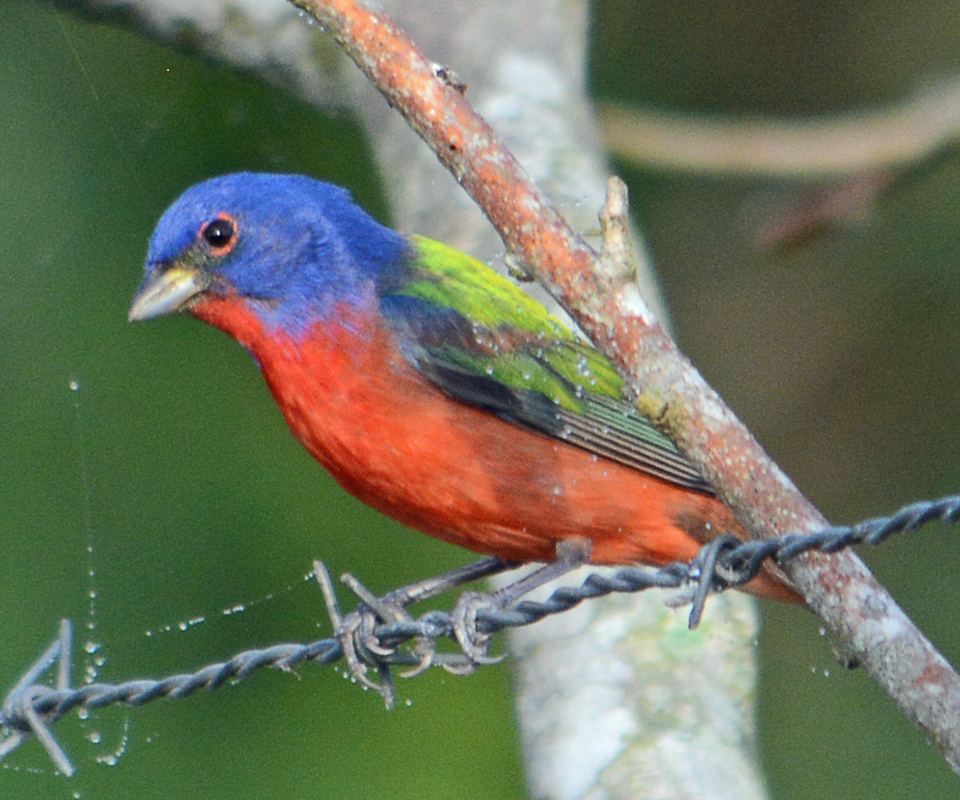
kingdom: Animalia
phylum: Chordata
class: Aves
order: Passeriformes
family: Cardinalidae
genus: Passerina
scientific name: Passerina ciris
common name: Painted bunting
